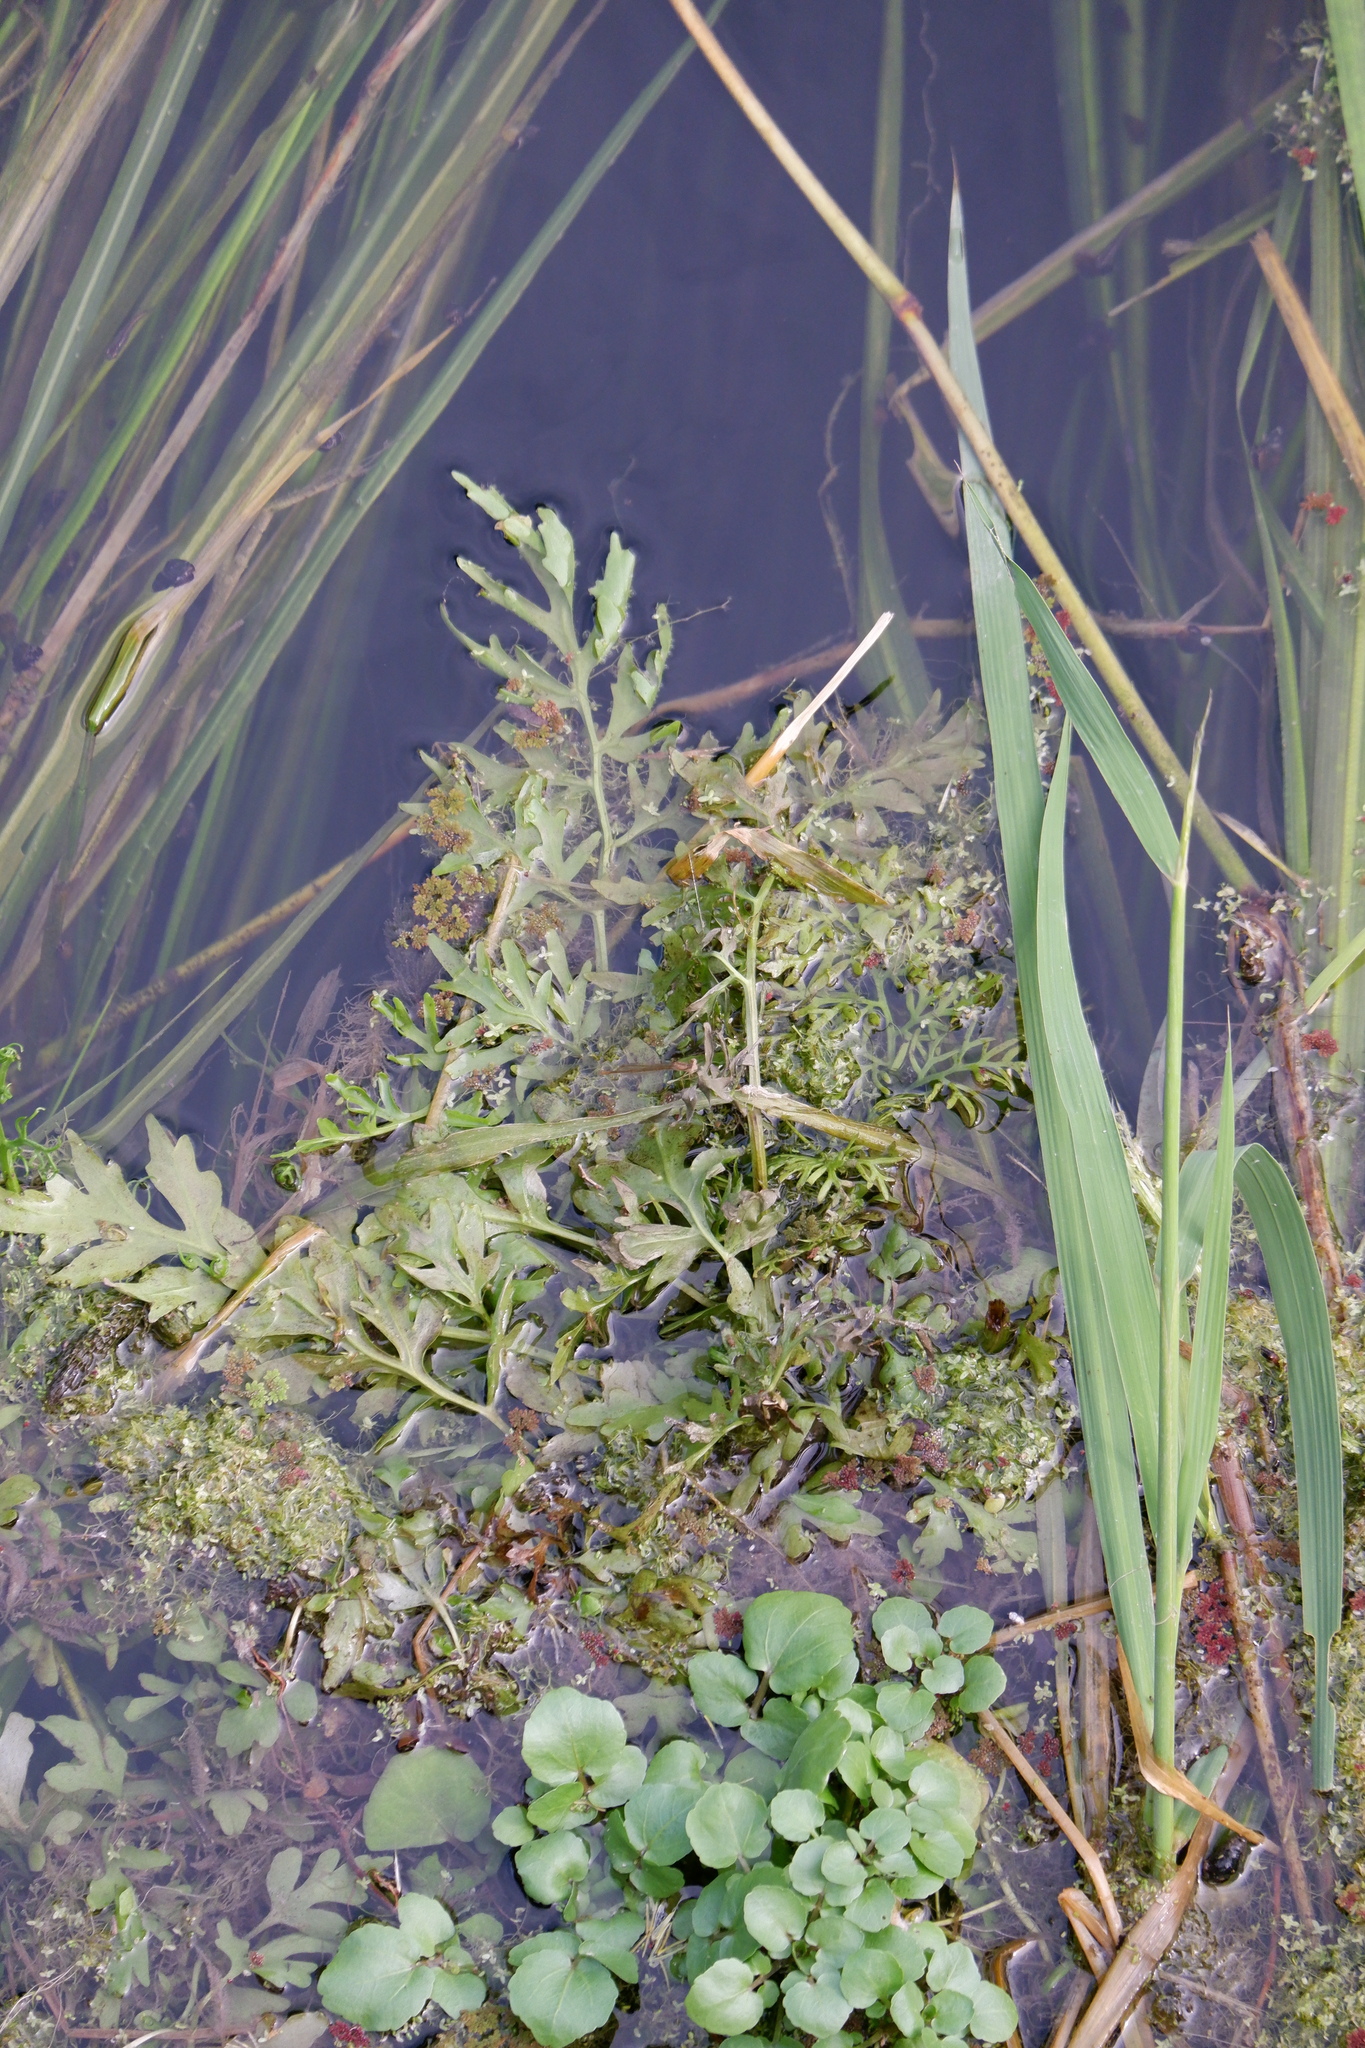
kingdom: Plantae
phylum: Tracheophyta
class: Polypodiopsida
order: Polypodiales
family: Pteridaceae
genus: Ceratopteris
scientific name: Ceratopteris thalictroides
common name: Water fern
